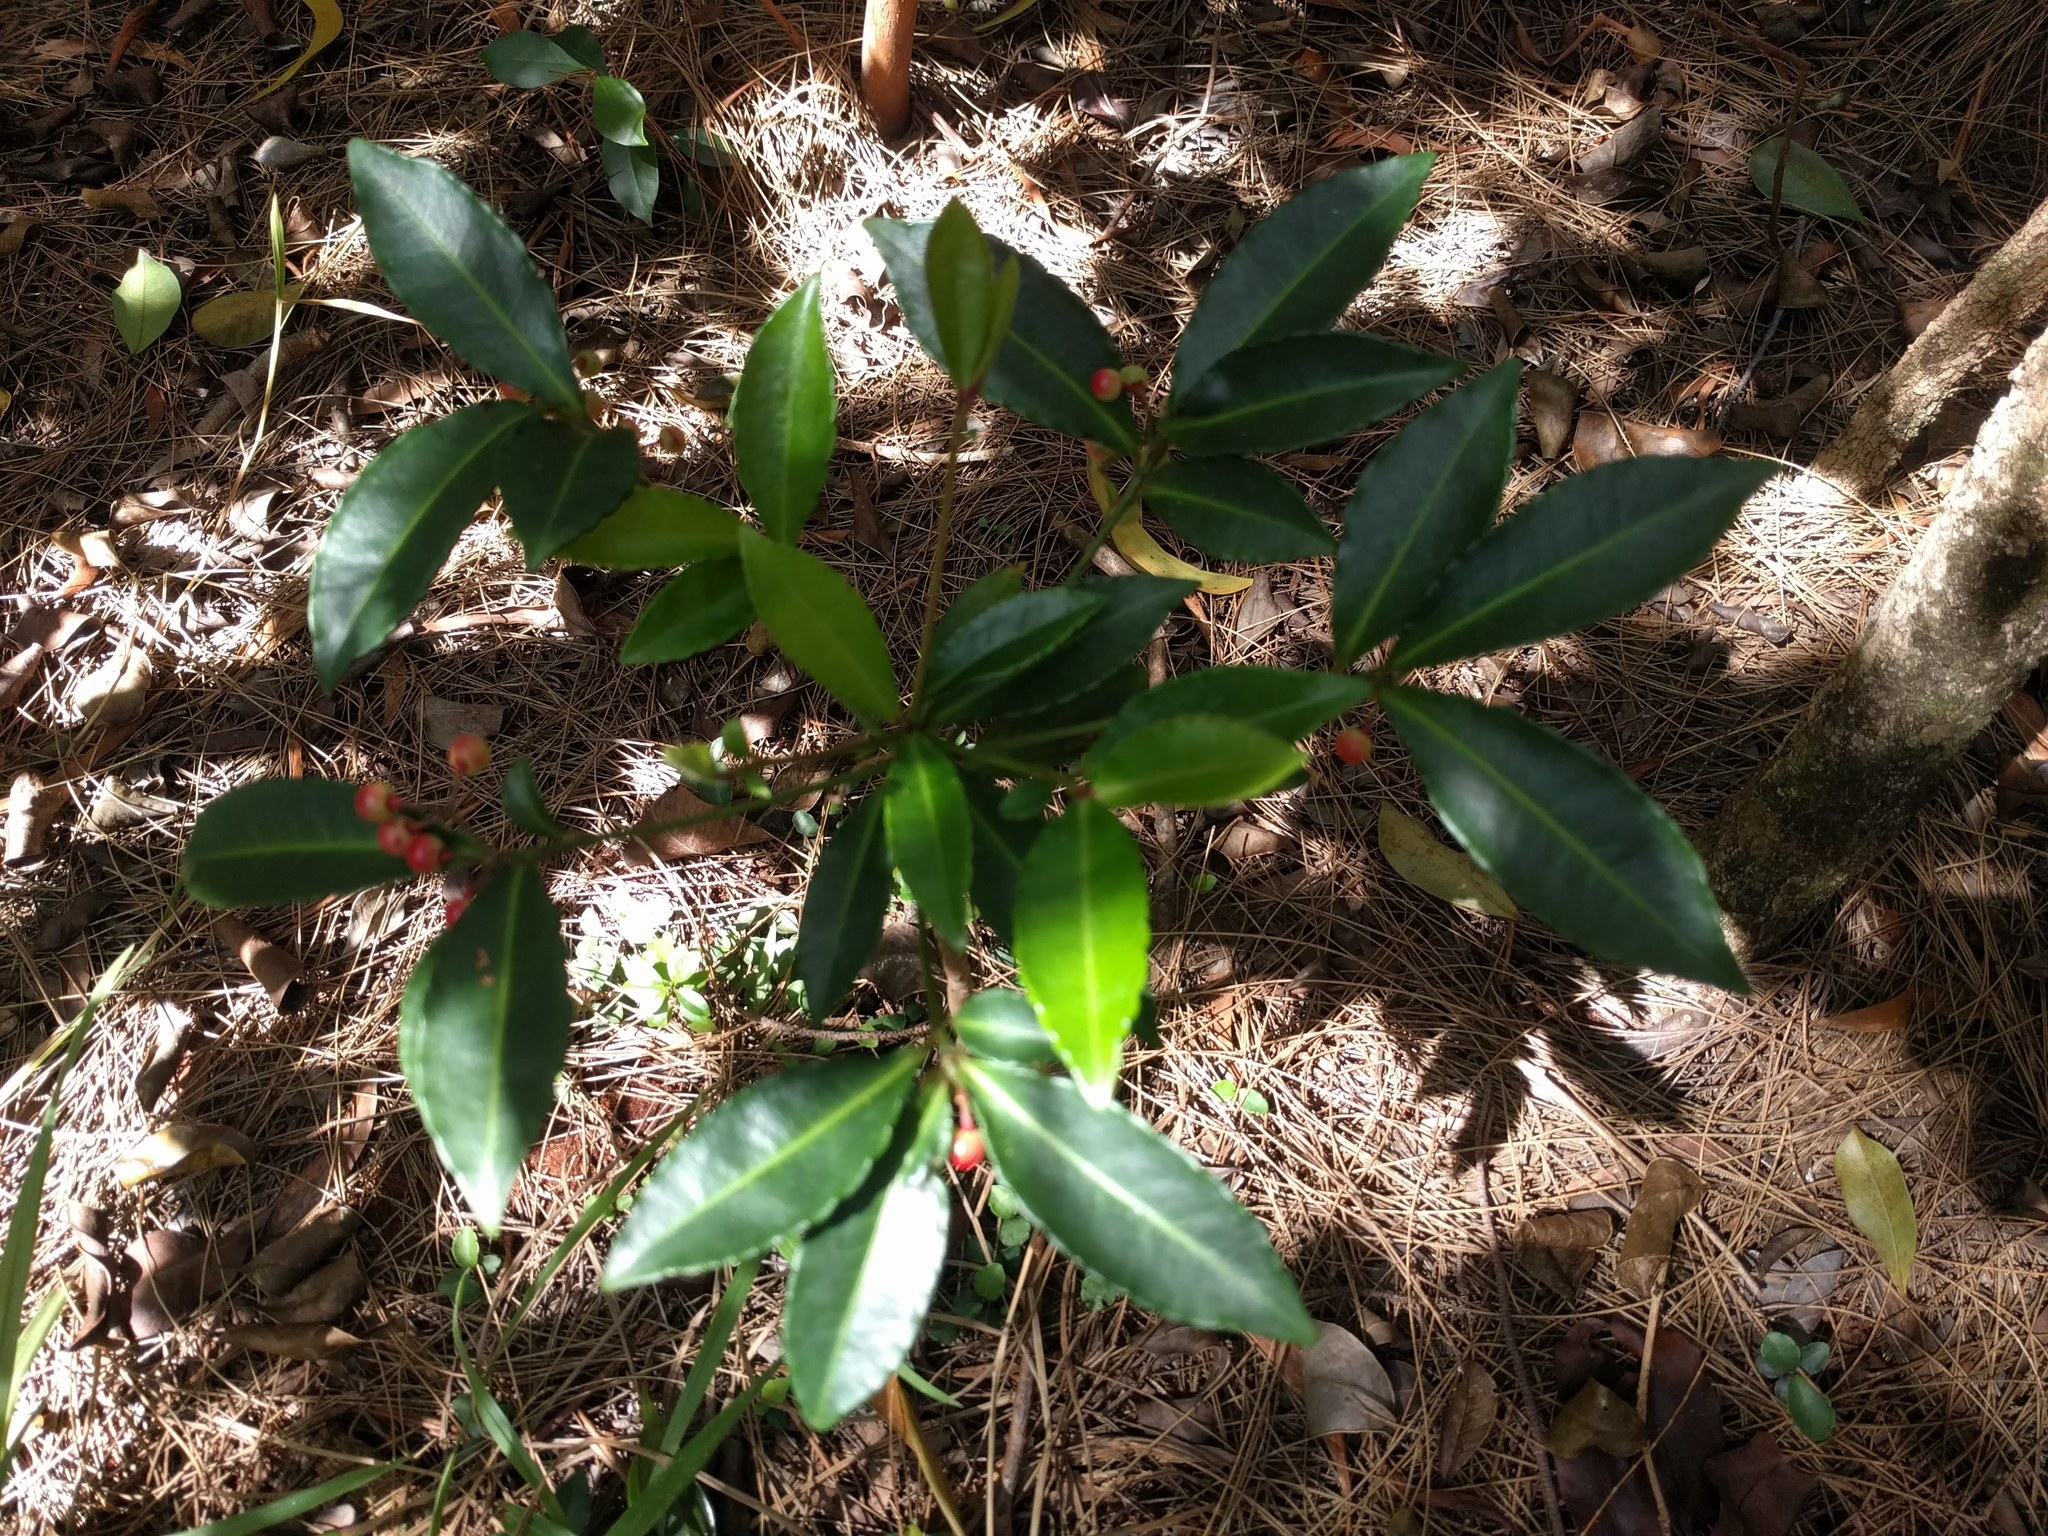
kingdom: Plantae
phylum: Tracheophyta
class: Magnoliopsida
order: Ericales
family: Primulaceae
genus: Ardisia
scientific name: Ardisia crenata
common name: Hen's eyes
